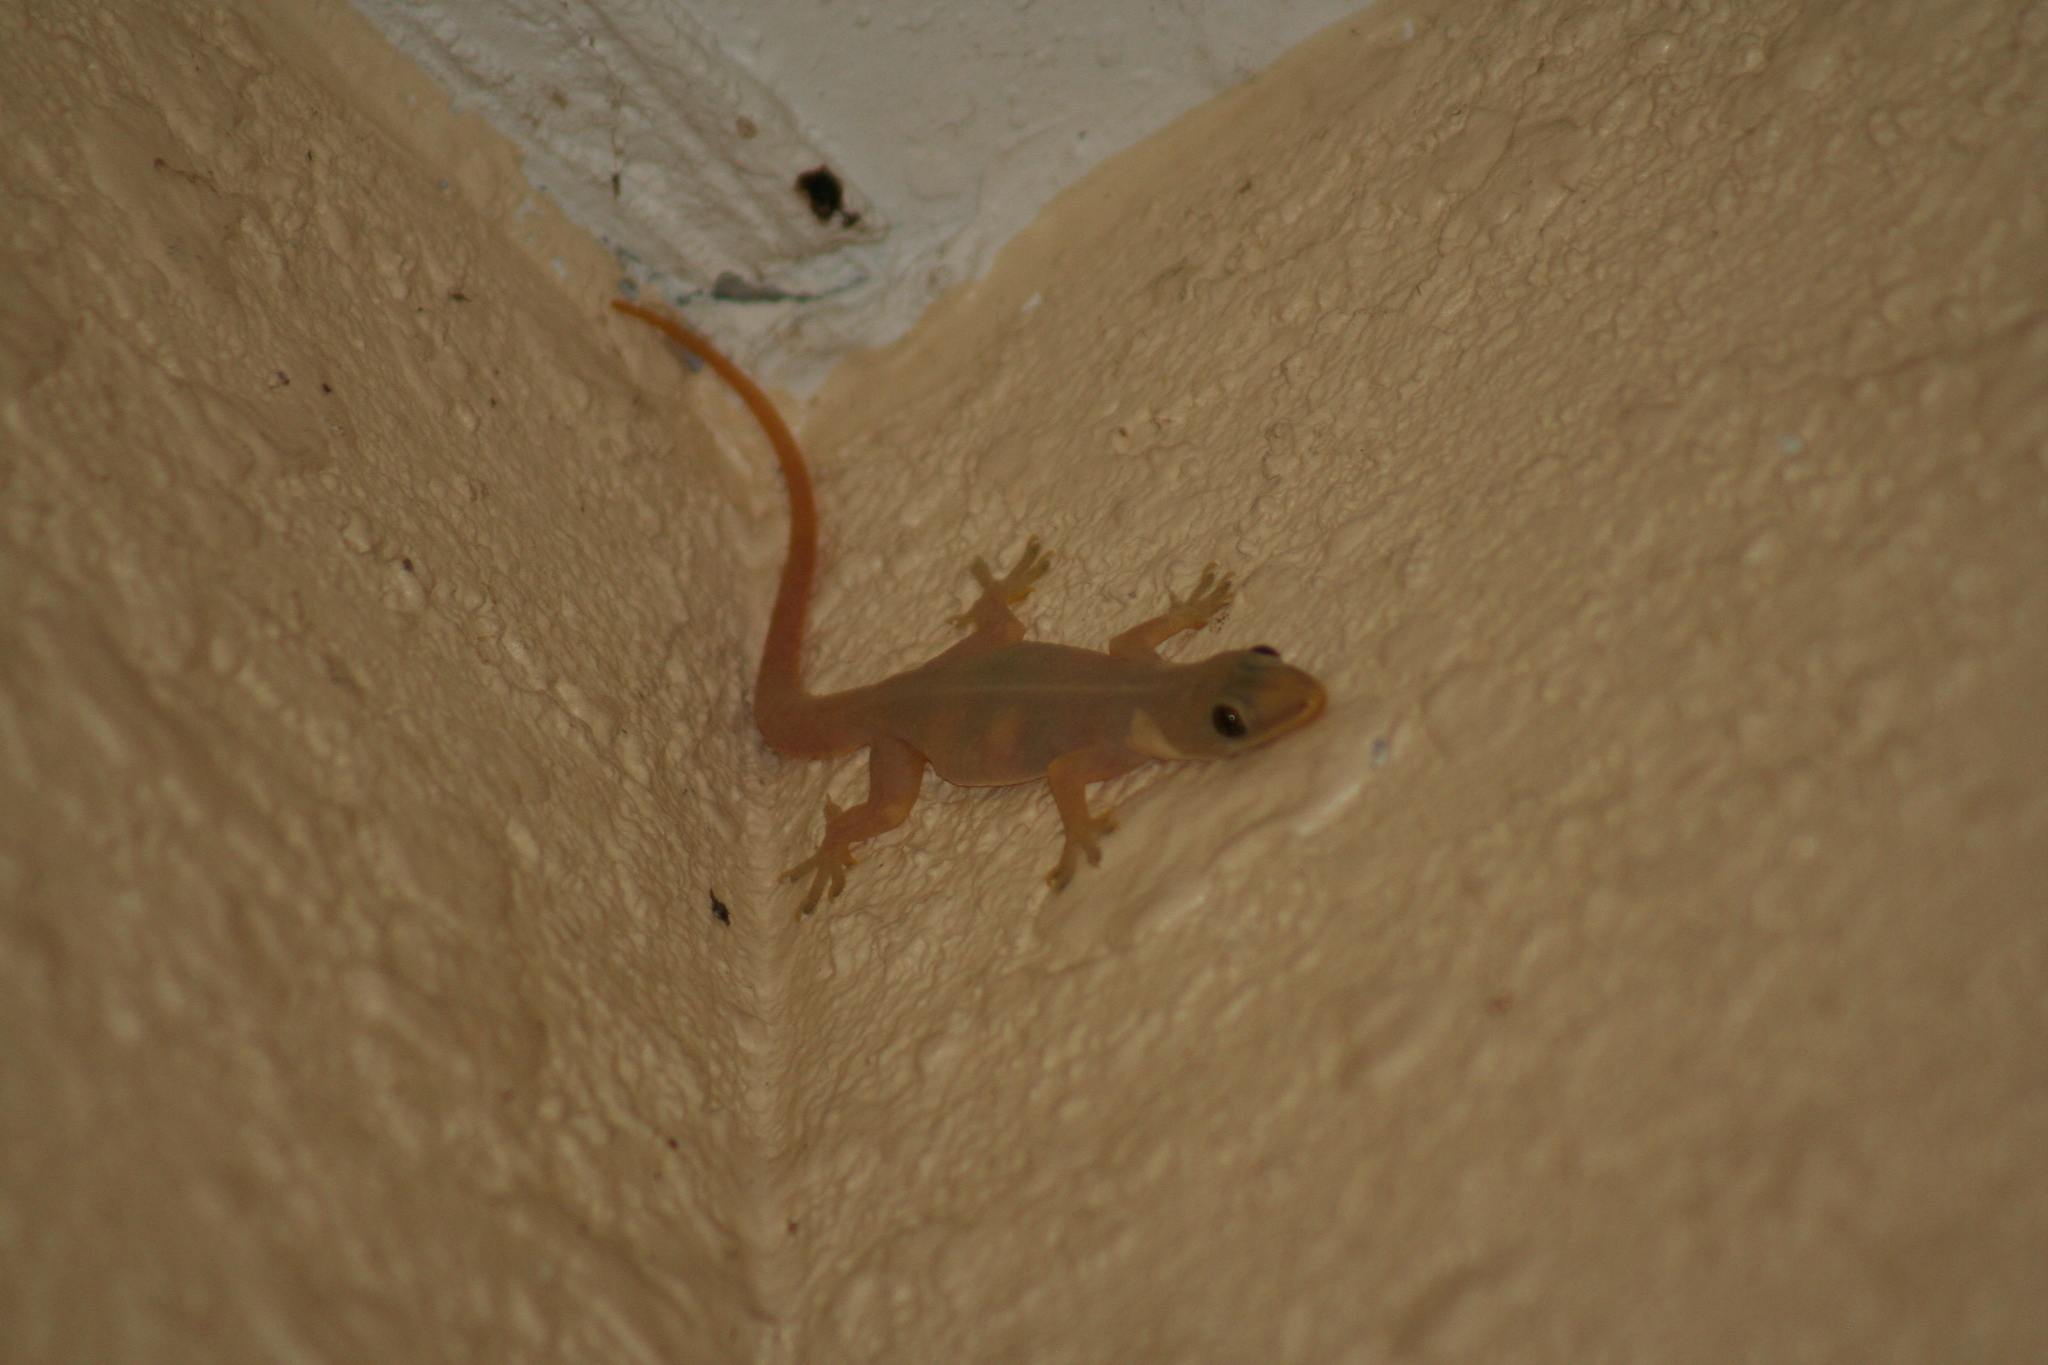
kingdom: Animalia
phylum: Chordata
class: Squamata
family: Gekkonidae
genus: Hemidactylus
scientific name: Hemidactylus garnotii
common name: Indo-pacific gecko
